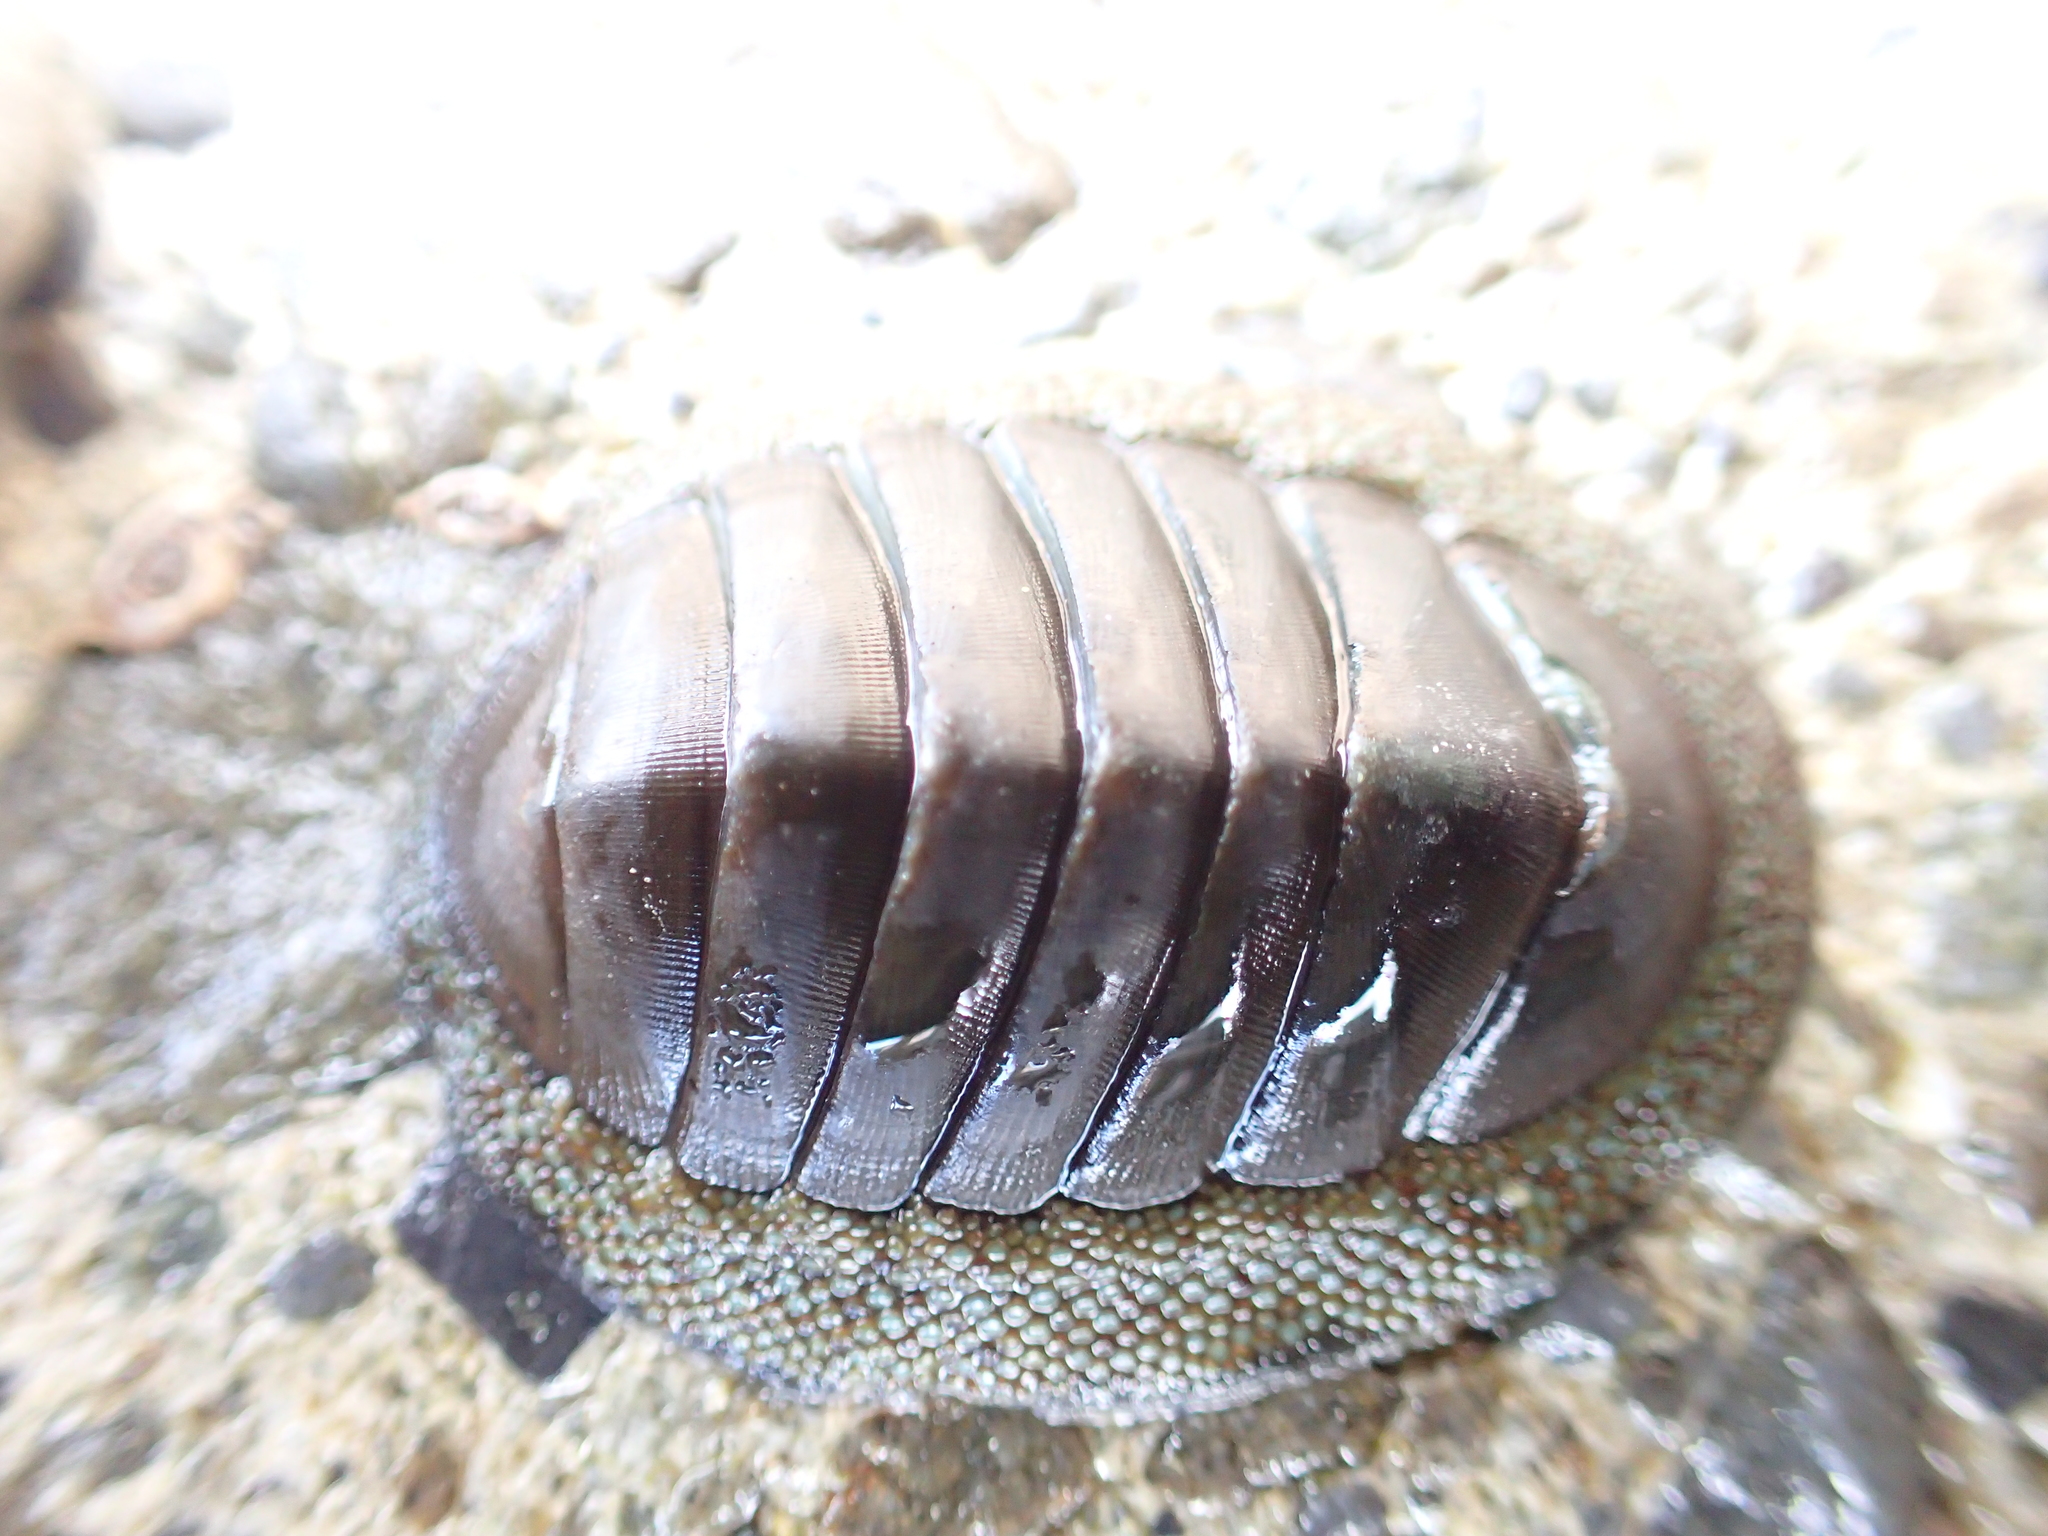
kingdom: Animalia
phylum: Mollusca
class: Polyplacophora
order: Chitonida
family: Chitonidae
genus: Chiton
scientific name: Chiton glaucus
